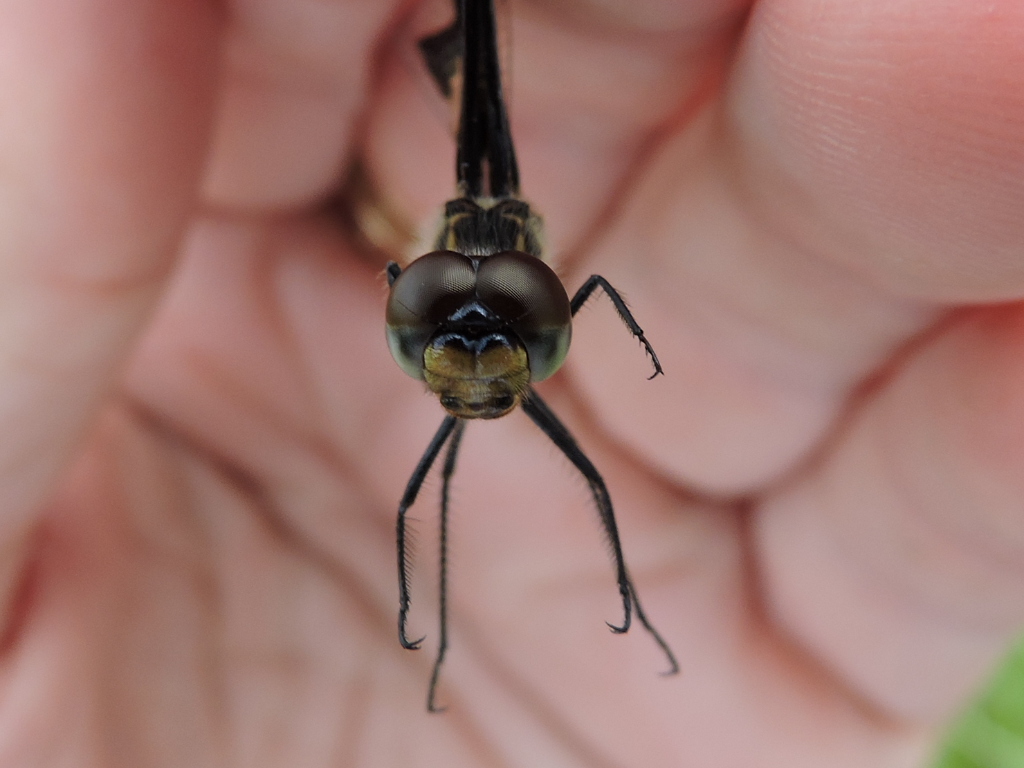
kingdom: Animalia
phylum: Arthropoda
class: Insecta
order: Odonata
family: Libellulidae
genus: Celithemis
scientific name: Celithemis fasciata
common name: Banded pennant
